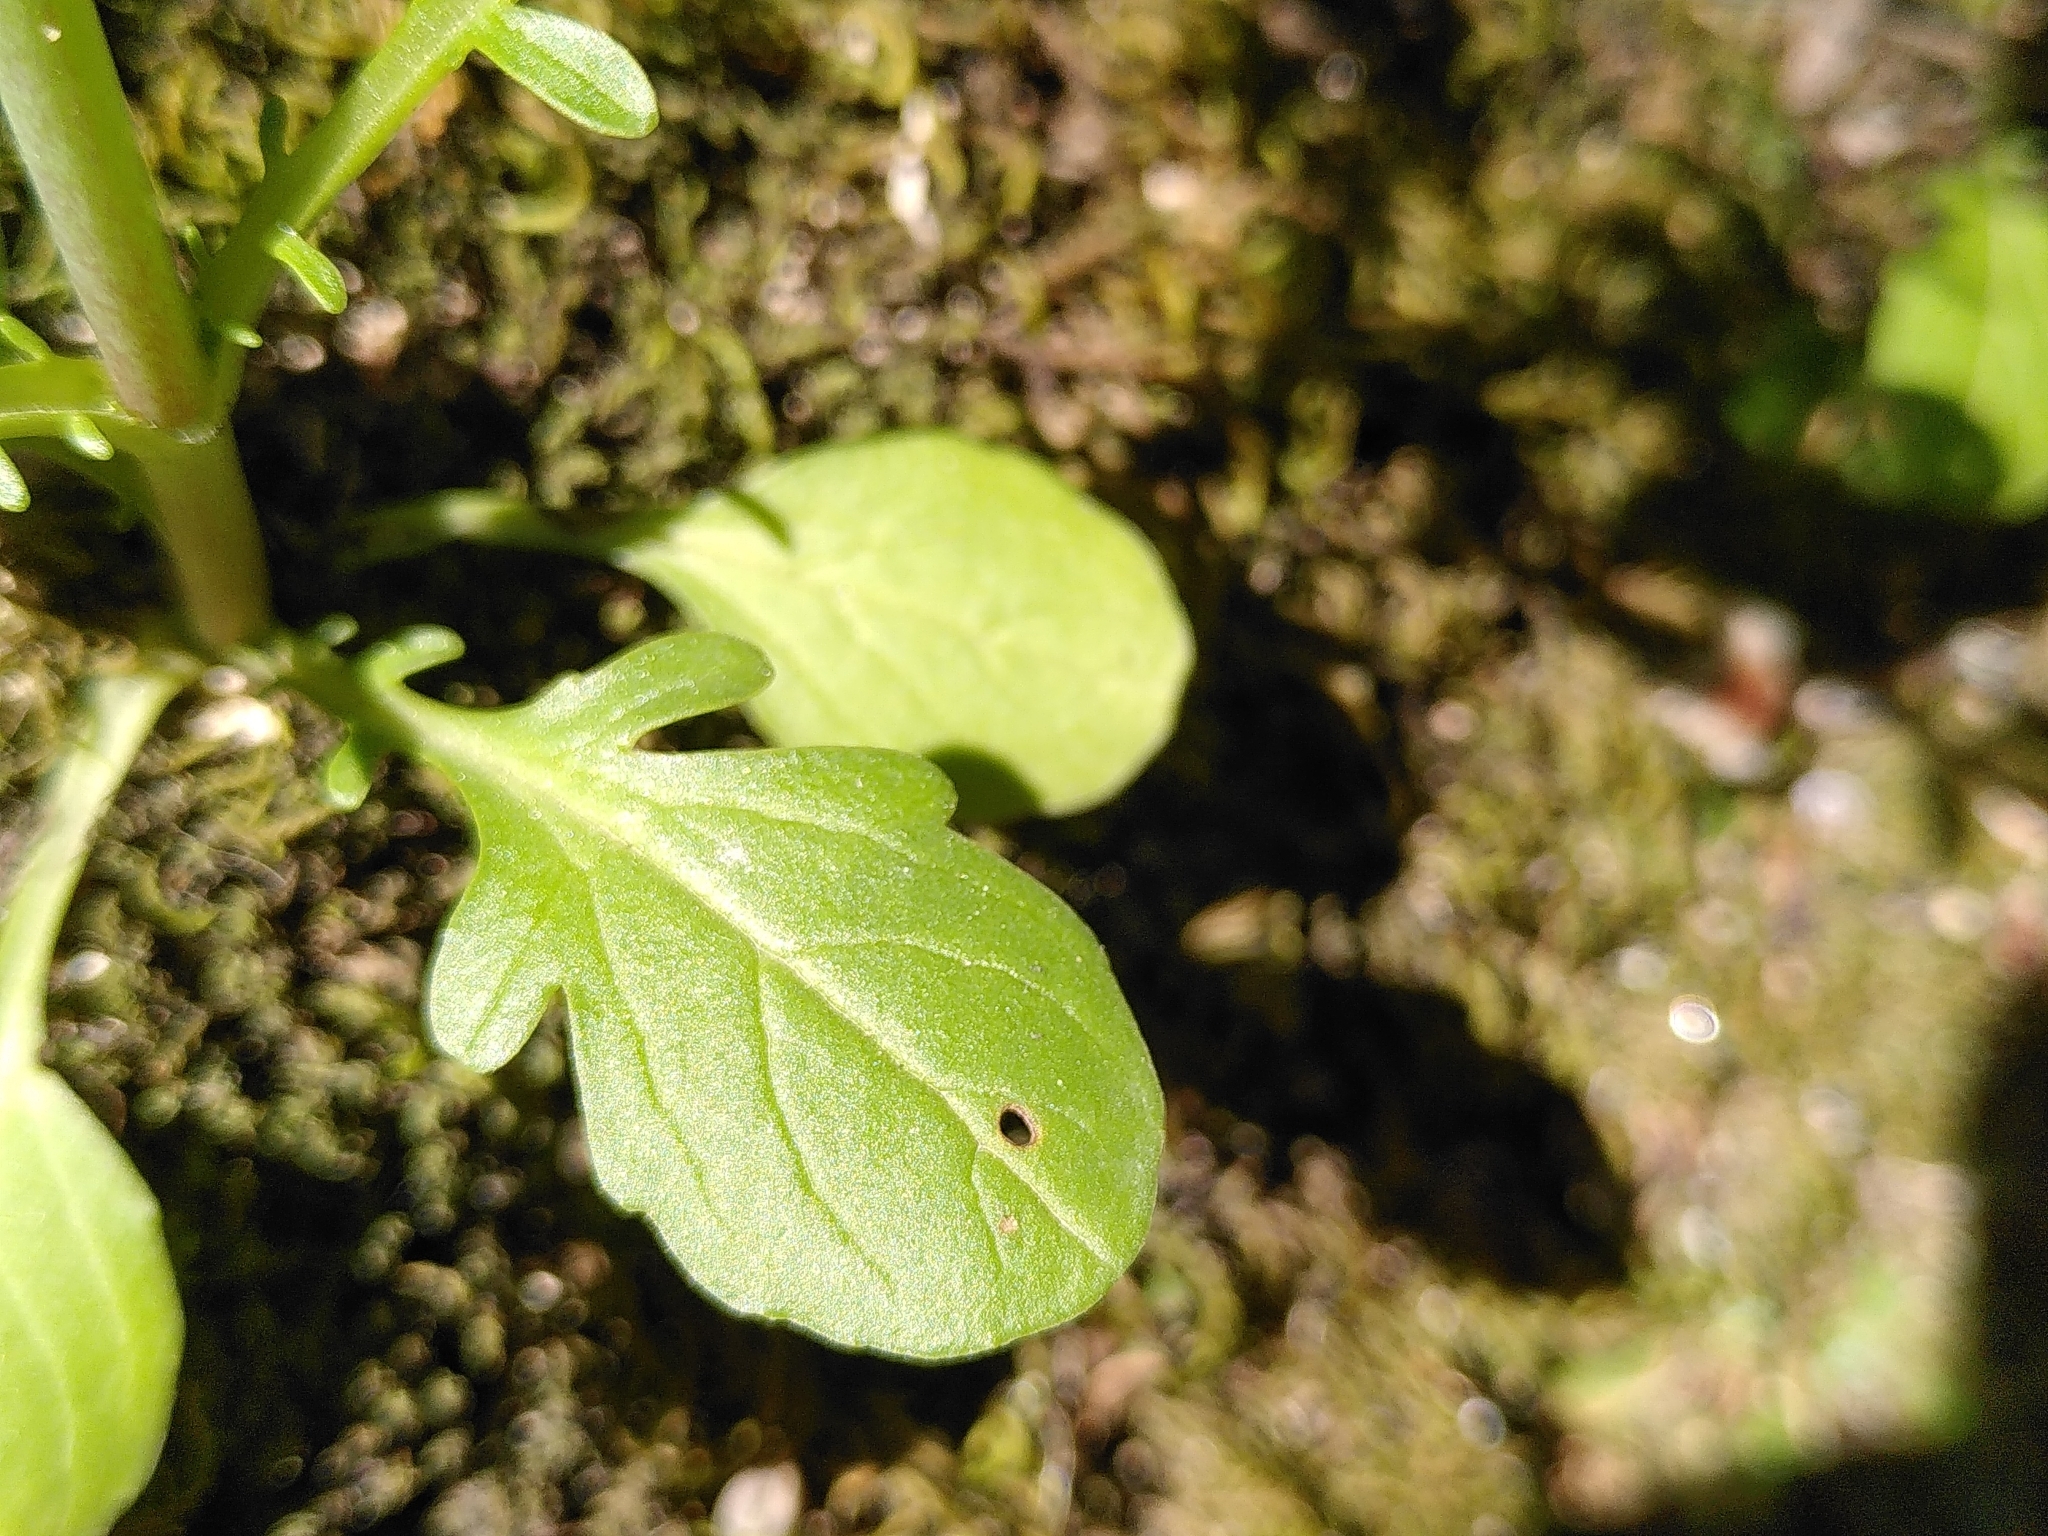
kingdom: Plantae
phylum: Tracheophyta
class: Magnoliopsida
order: Dipsacales
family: Caprifoliaceae
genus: Centranthus
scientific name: Centranthus calcitrapae
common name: Annual valerian
